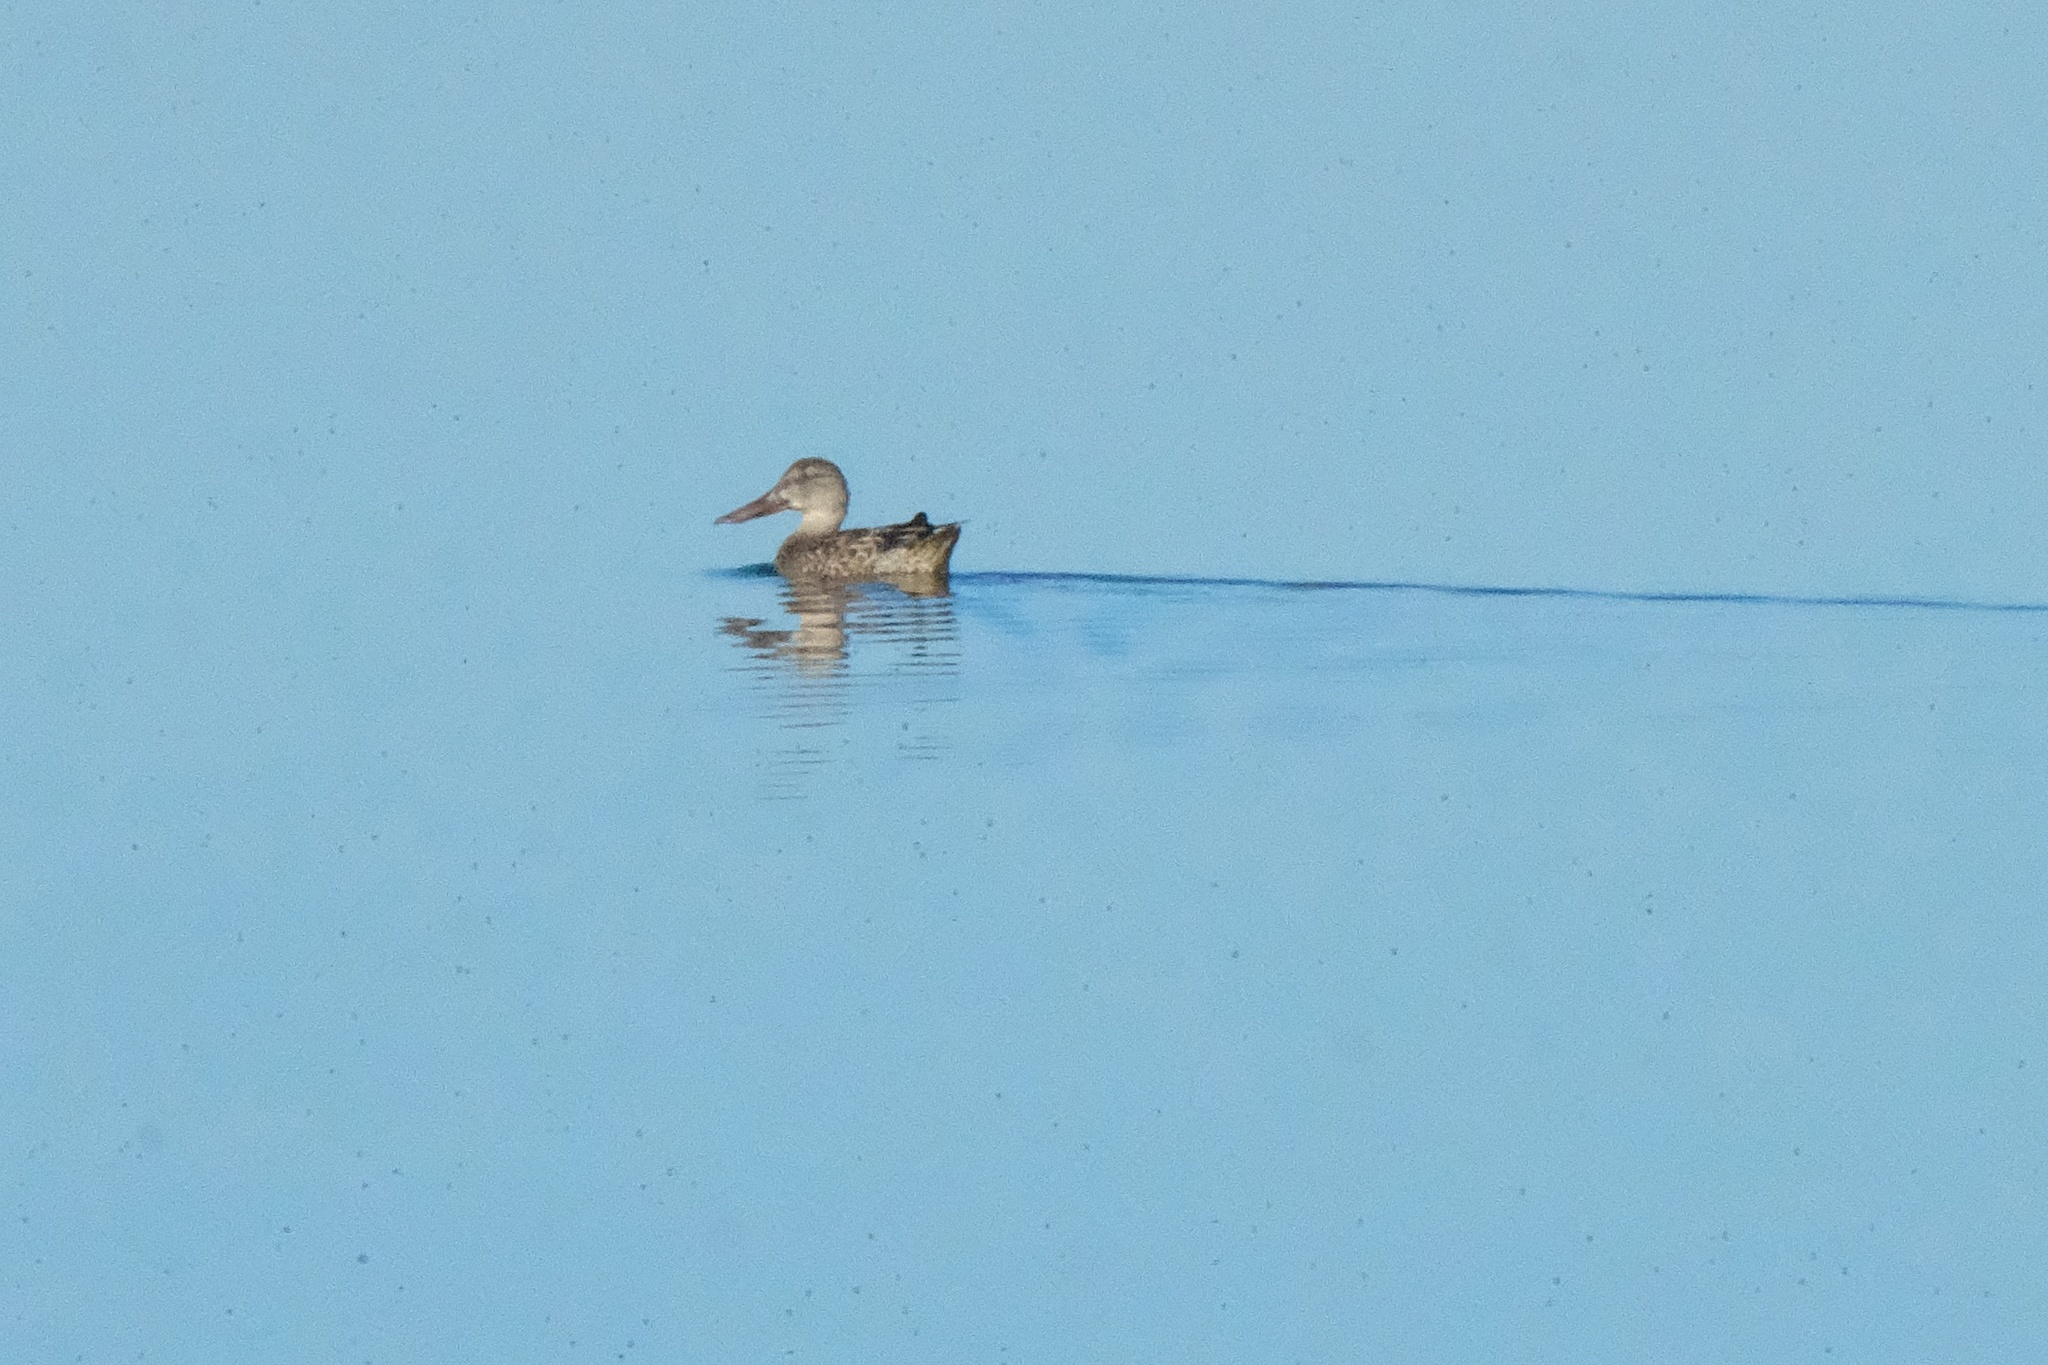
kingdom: Animalia
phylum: Chordata
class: Aves
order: Anseriformes
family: Anatidae
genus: Spatula
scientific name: Spatula clypeata
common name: Northern shoveler
